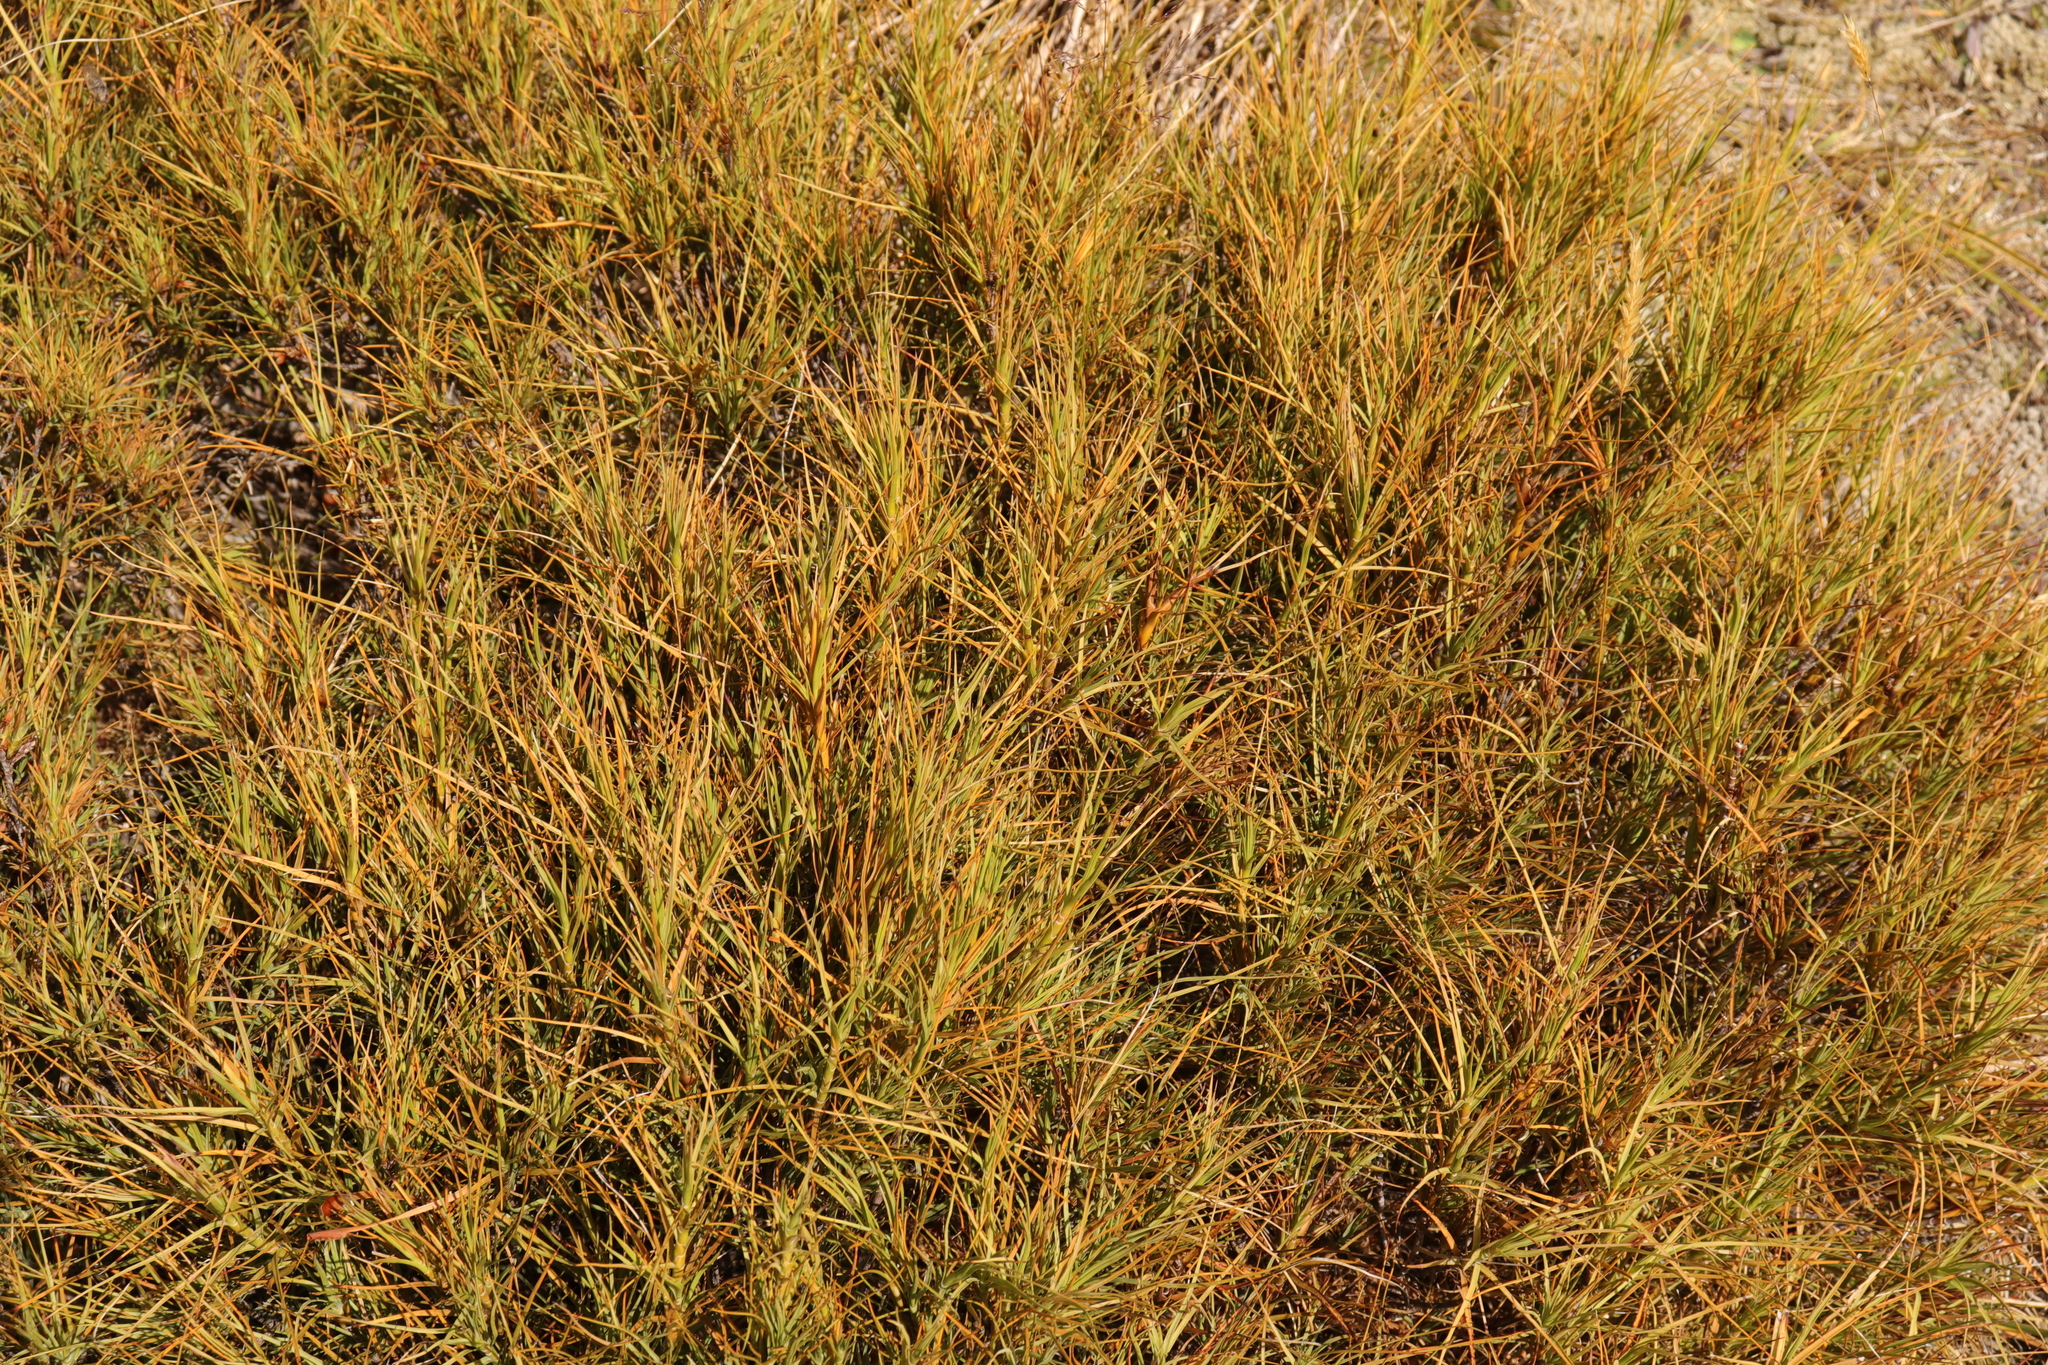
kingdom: Plantae
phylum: Tracheophyta
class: Magnoliopsida
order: Ericales
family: Ericaceae
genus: Dracophyllum
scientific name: Dracophyllum longifolium
